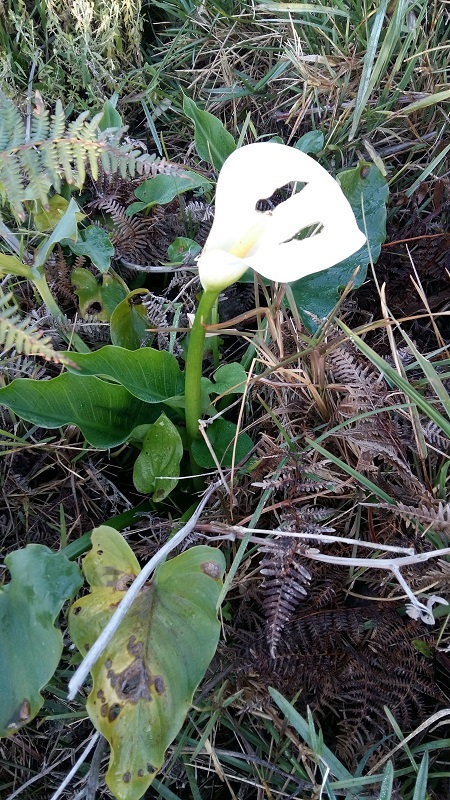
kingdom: Plantae
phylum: Tracheophyta
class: Liliopsida
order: Alismatales
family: Araceae
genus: Zantedeschia
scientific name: Zantedeschia aethiopica
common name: Altar-lily
